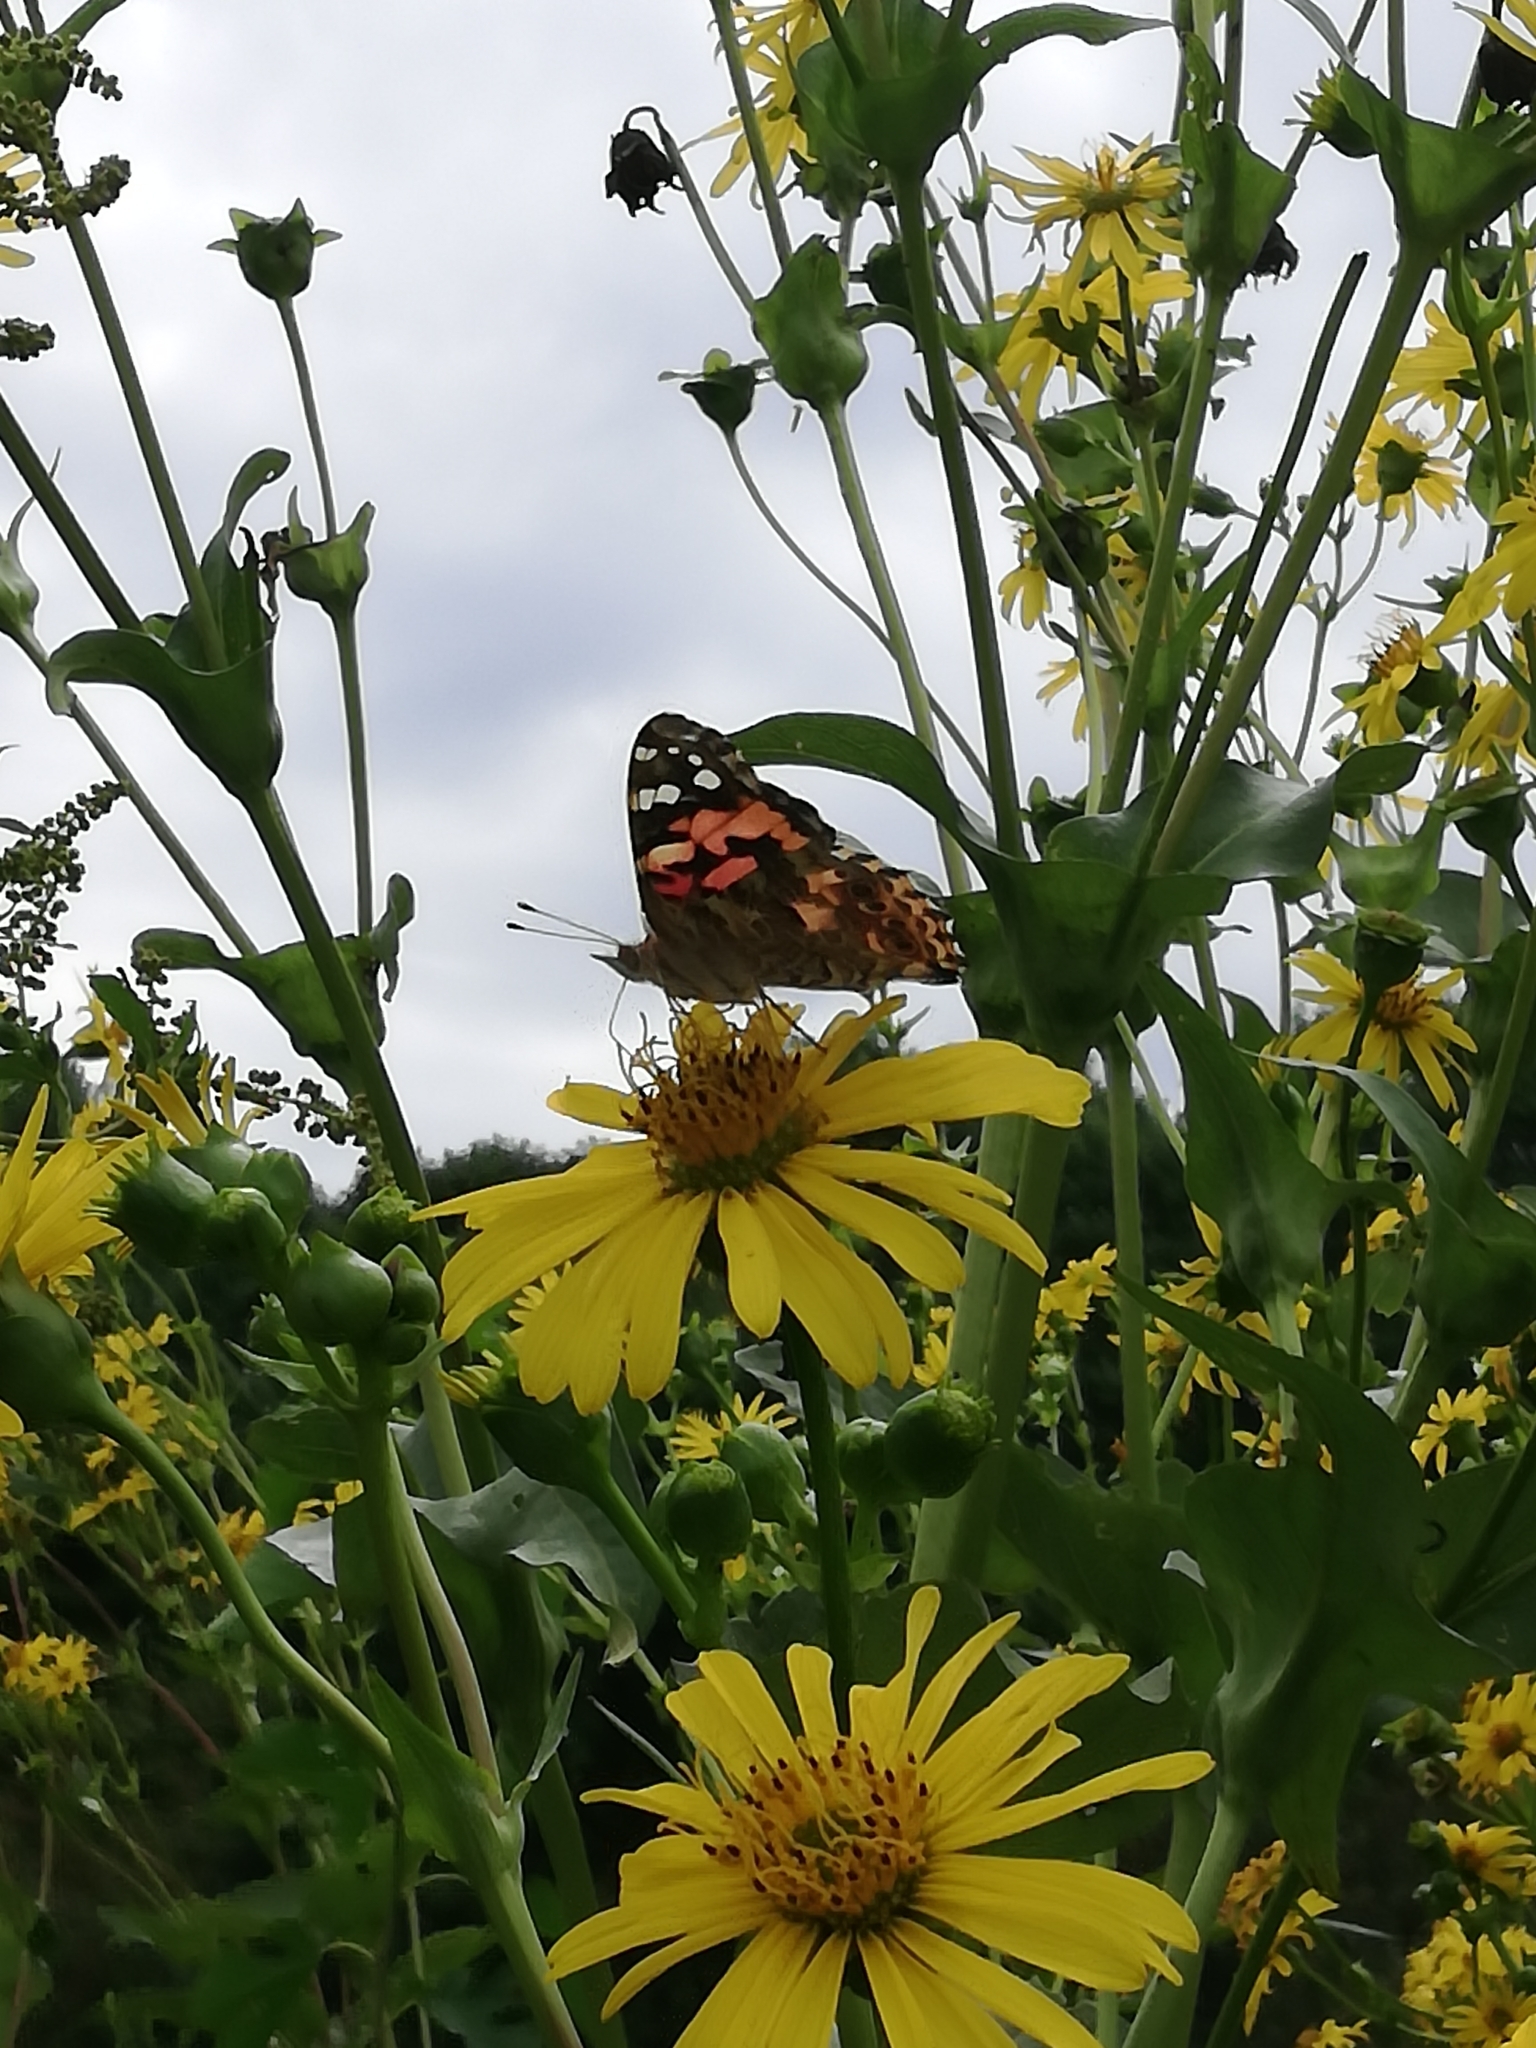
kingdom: Animalia
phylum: Arthropoda
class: Insecta
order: Lepidoptera
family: Nymphalidae
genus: Vanessa
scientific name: Vanessa cardui
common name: Painted lady
